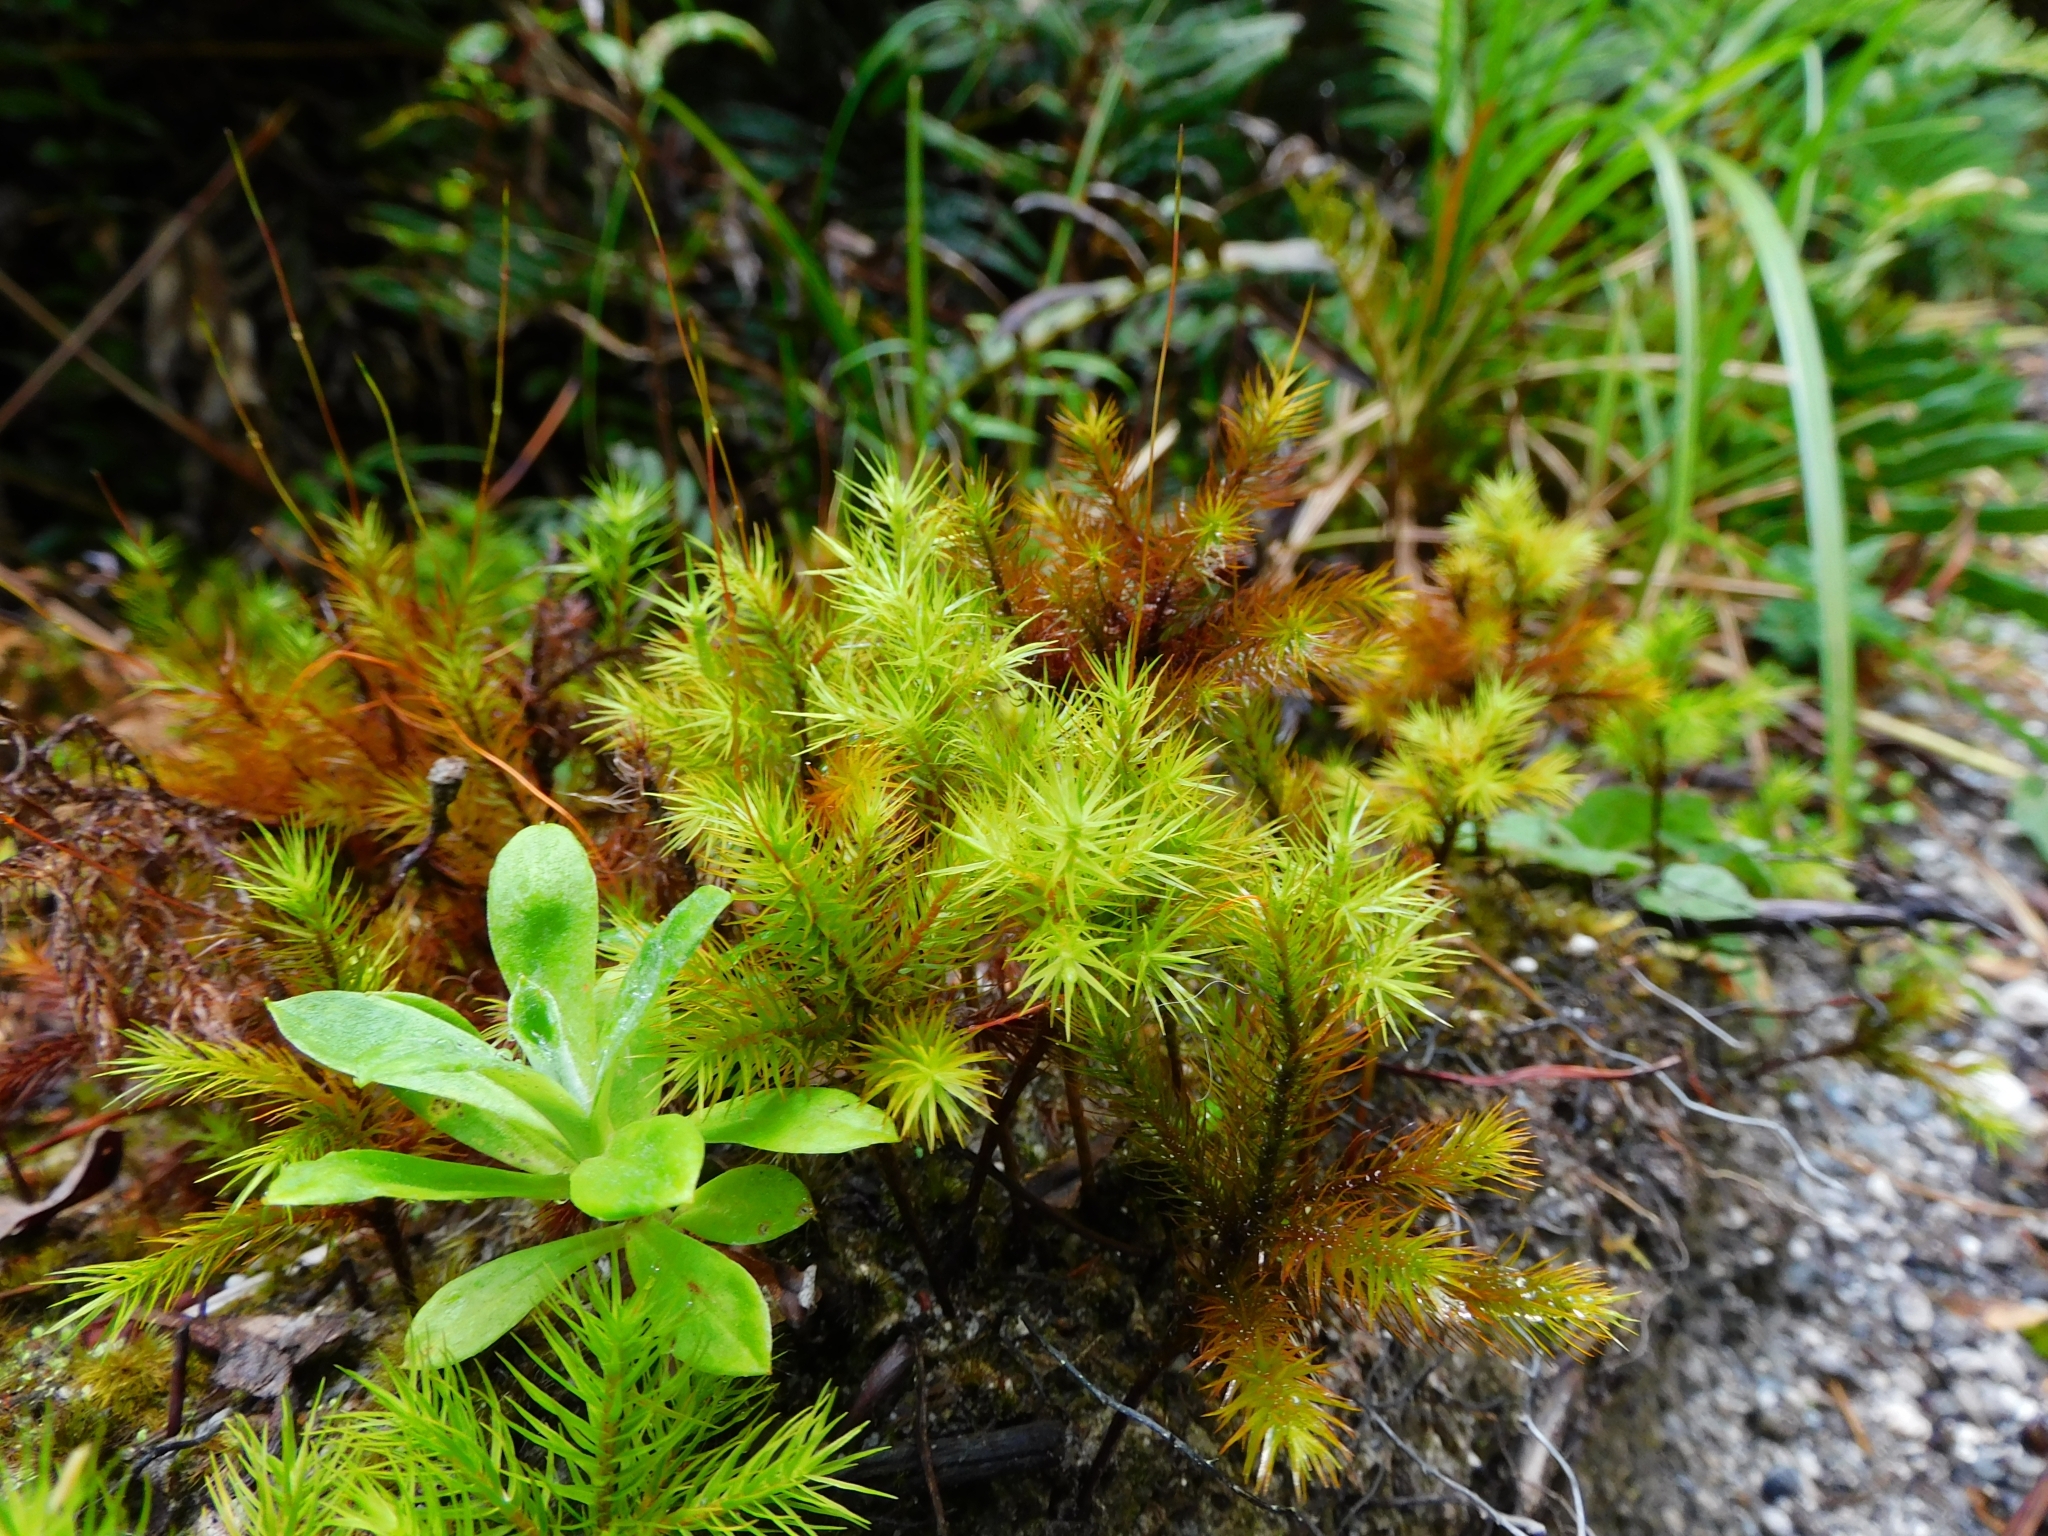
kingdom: Plantae
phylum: Bryophyta
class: Polytrichopsida
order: Polytrichales
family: Polytrichaceae
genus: Dendroligotrichum
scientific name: Dendroligotrichum dendroides
